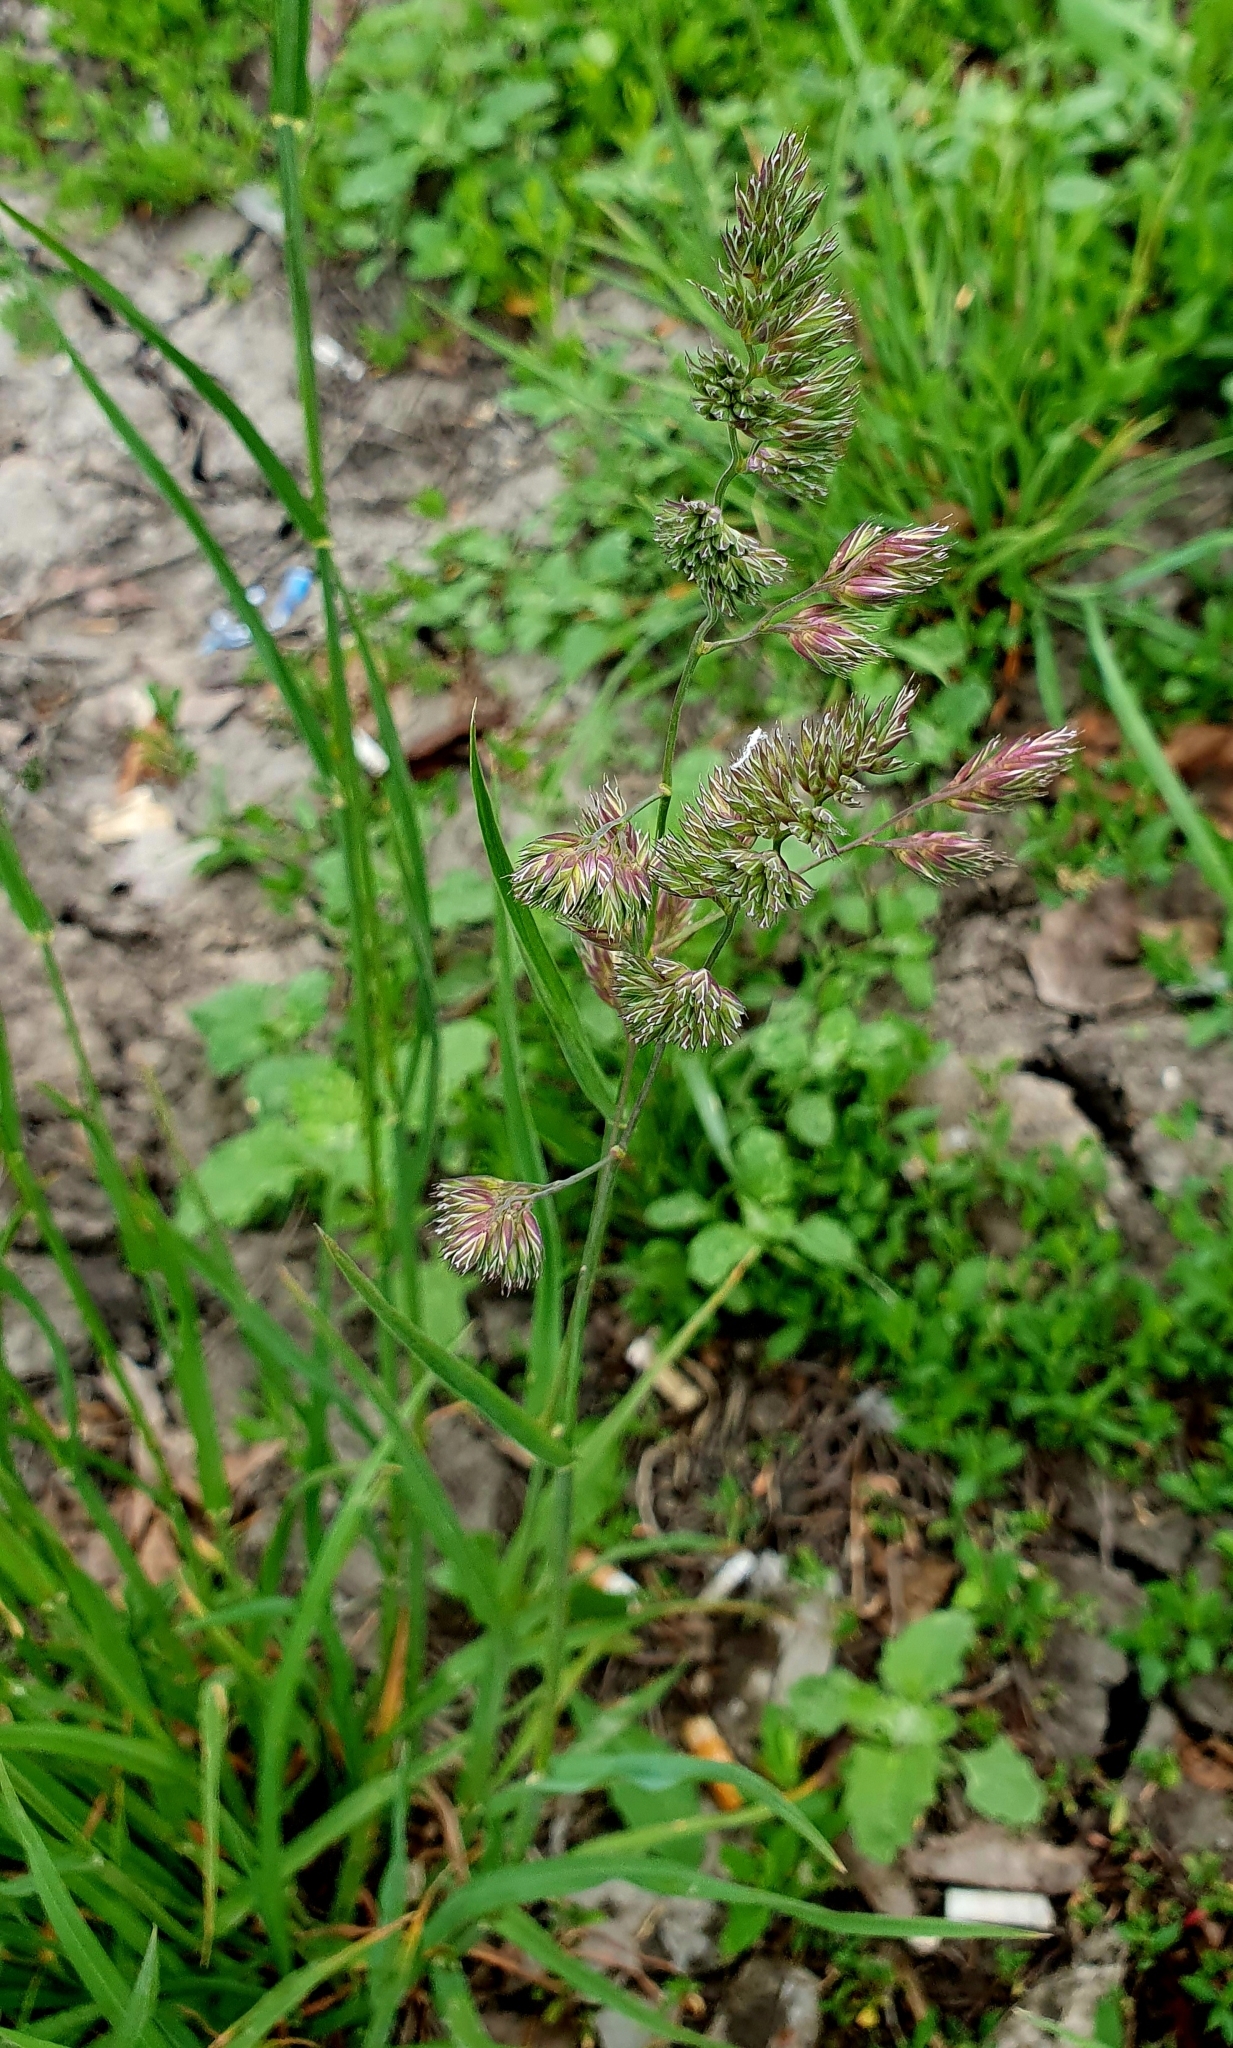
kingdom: Plantae
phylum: Tracheophyta
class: Liliopsida
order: Poales
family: Poaceae
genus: Dactylis
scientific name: Dactylis glomerata
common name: Orchardgrass
